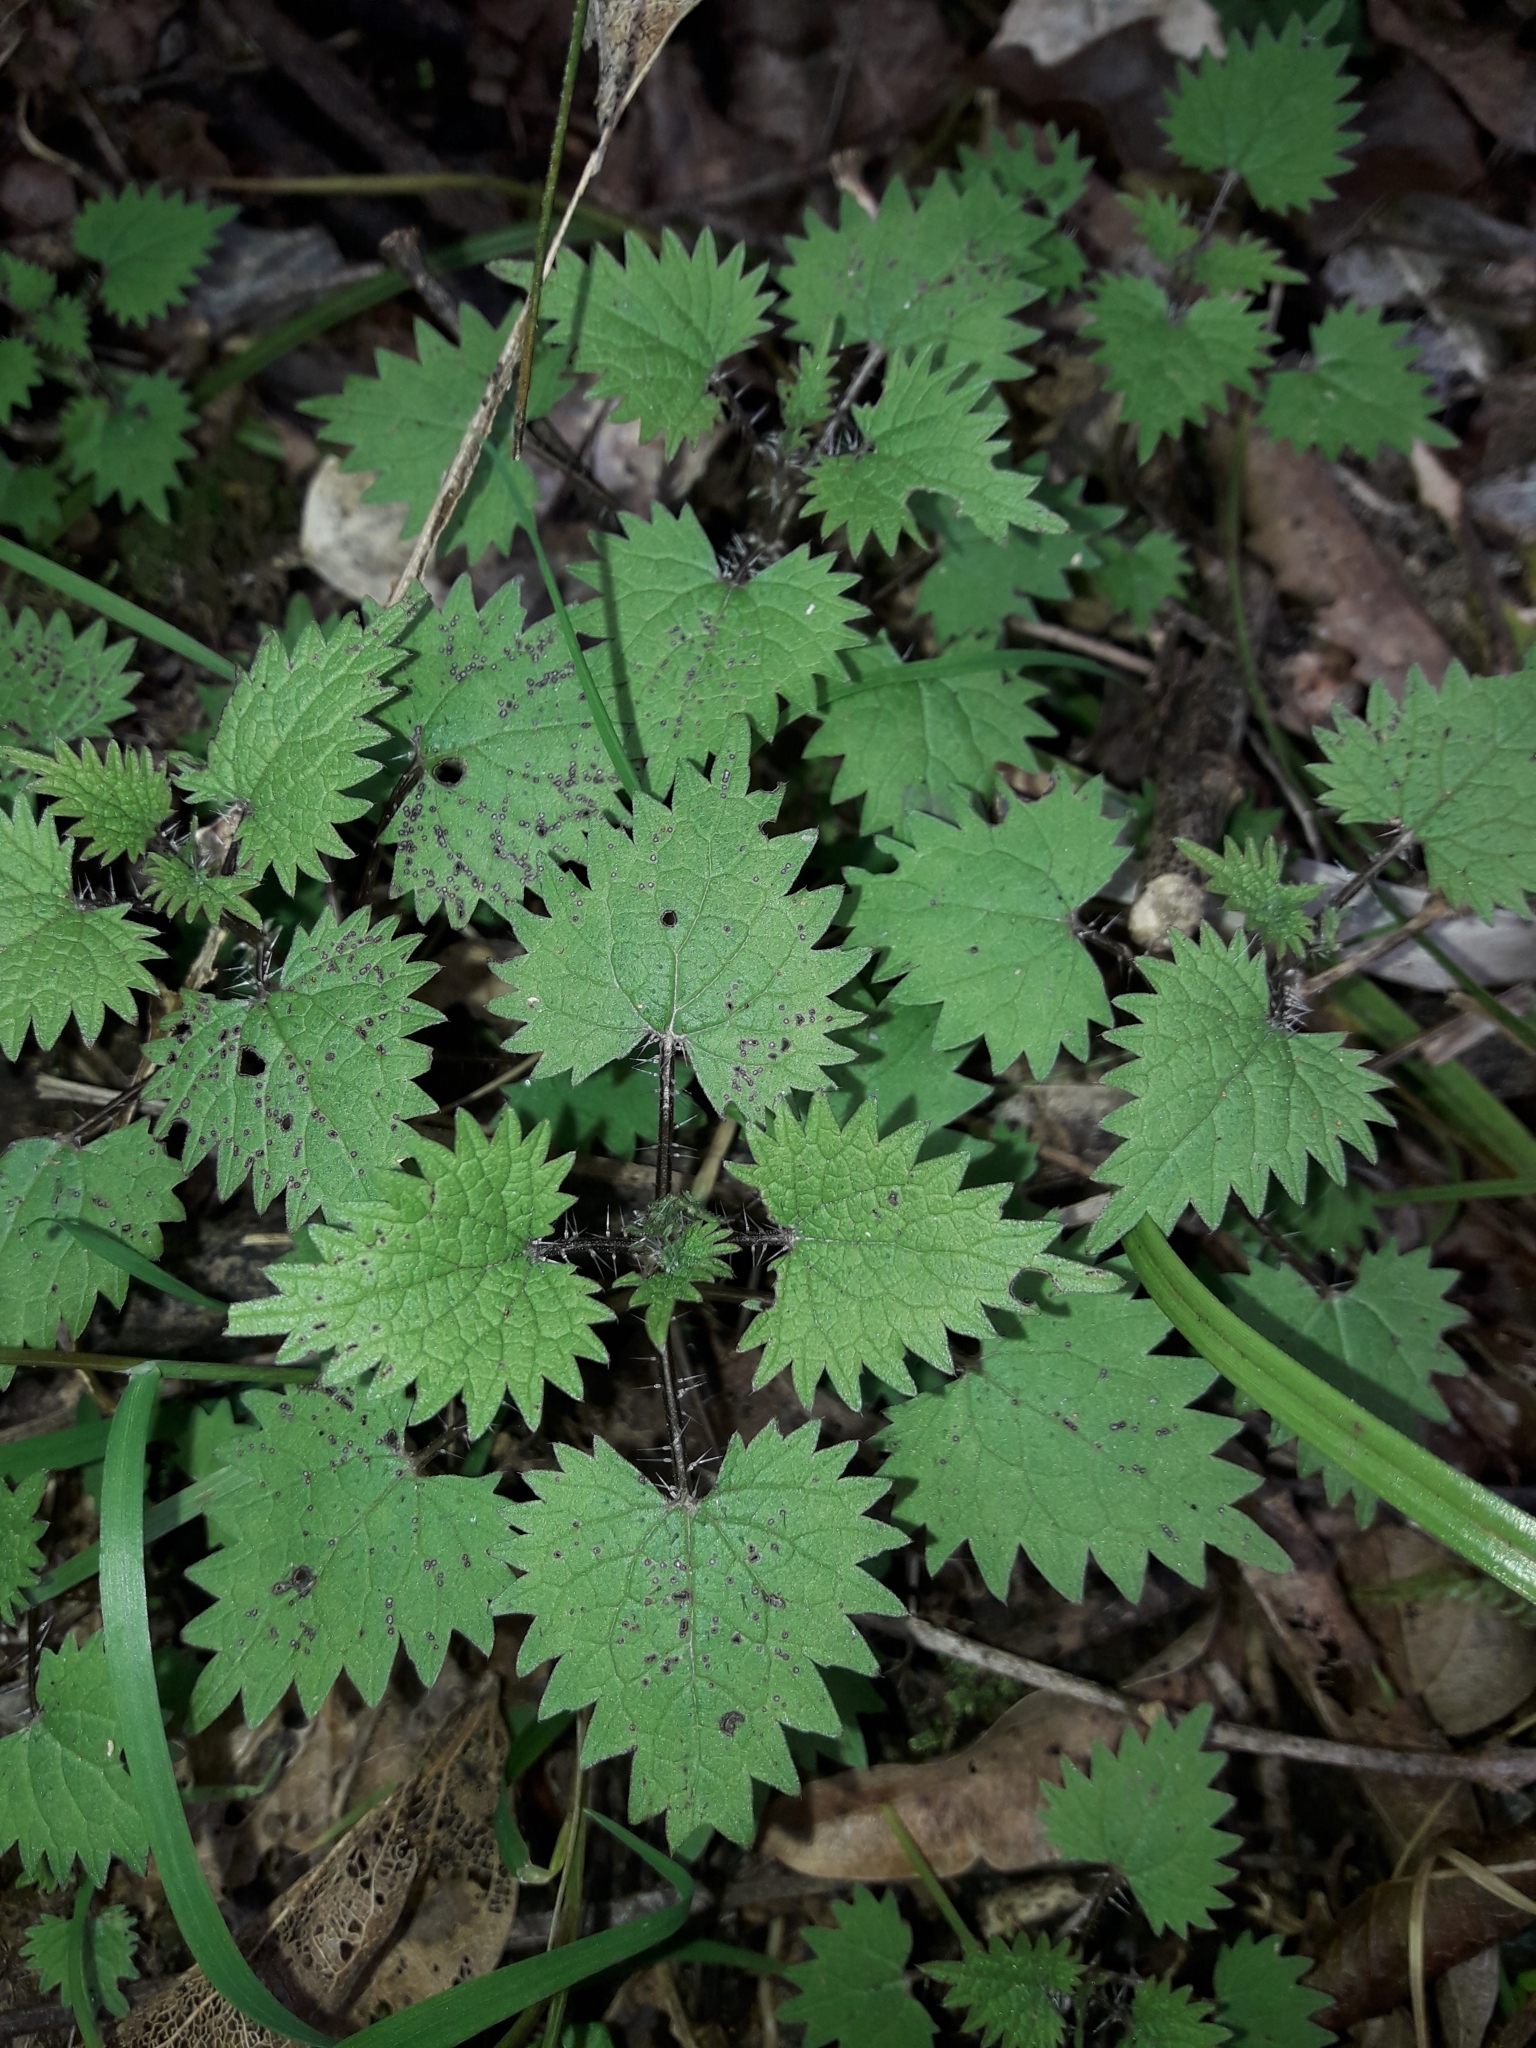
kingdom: Plantae
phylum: Tracheophyta
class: Magnoliopsida
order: Rosales
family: Urticaceae
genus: Urtica
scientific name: Urtica sykesii
